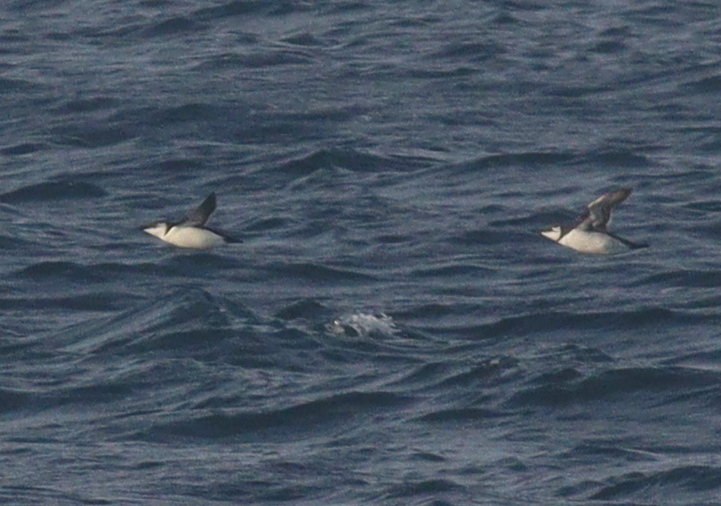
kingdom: Animalia
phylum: Chordata
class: Aves
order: Charadriiformes
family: Alcidae
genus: Alca
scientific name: Alca torda
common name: Razorbill
